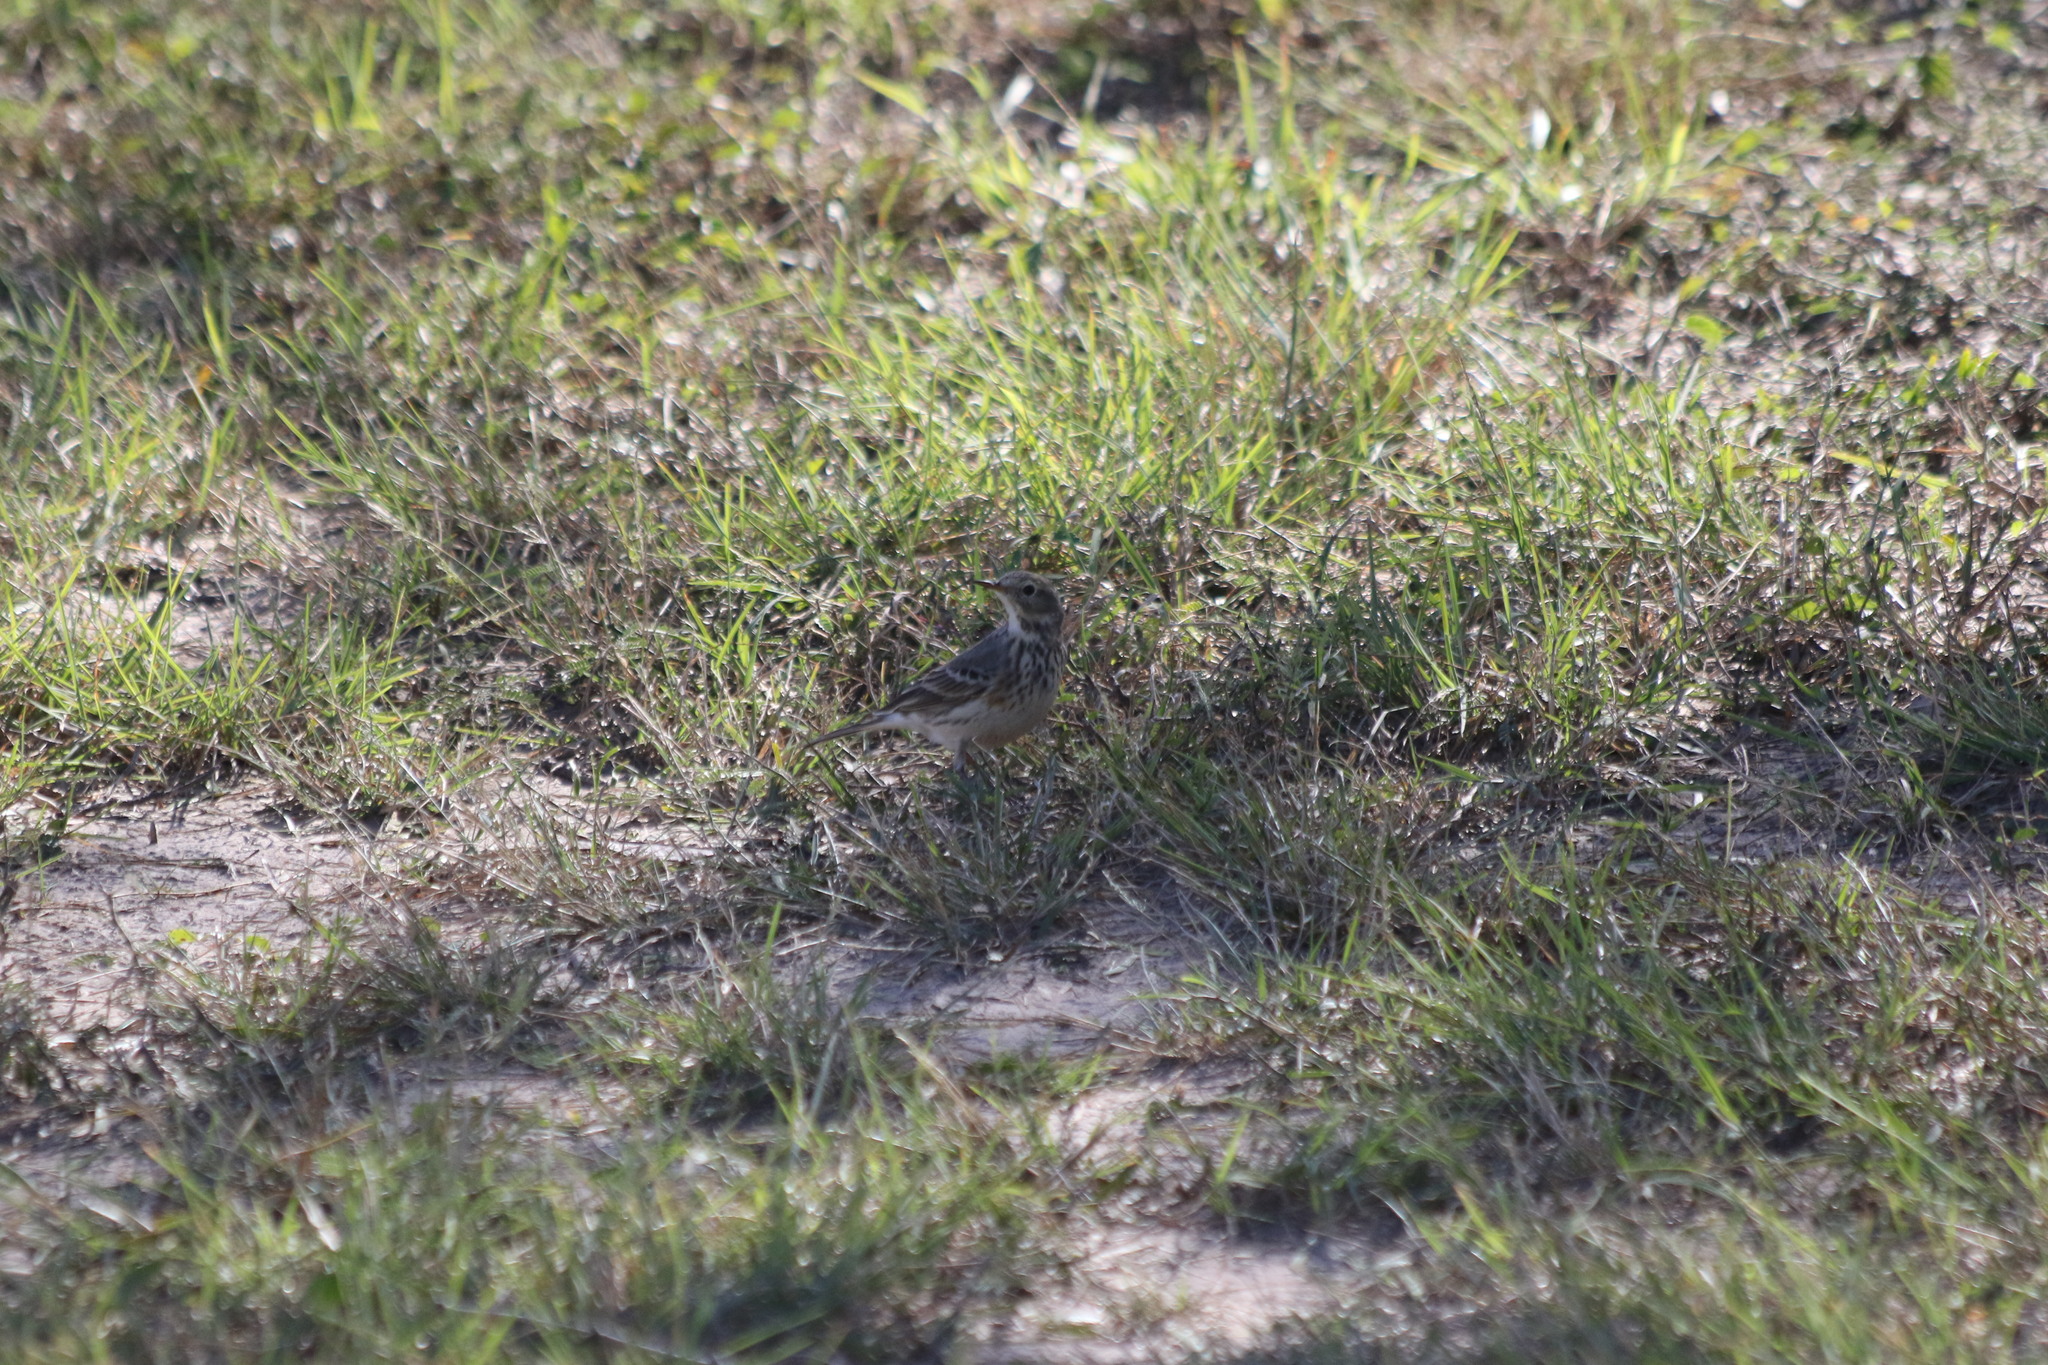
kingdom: Animalia
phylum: Chordata
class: Aves
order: Passeriformes
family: Motacillidae
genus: Anthus
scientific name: Anthus rubescens
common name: Buff-bellied pipit
